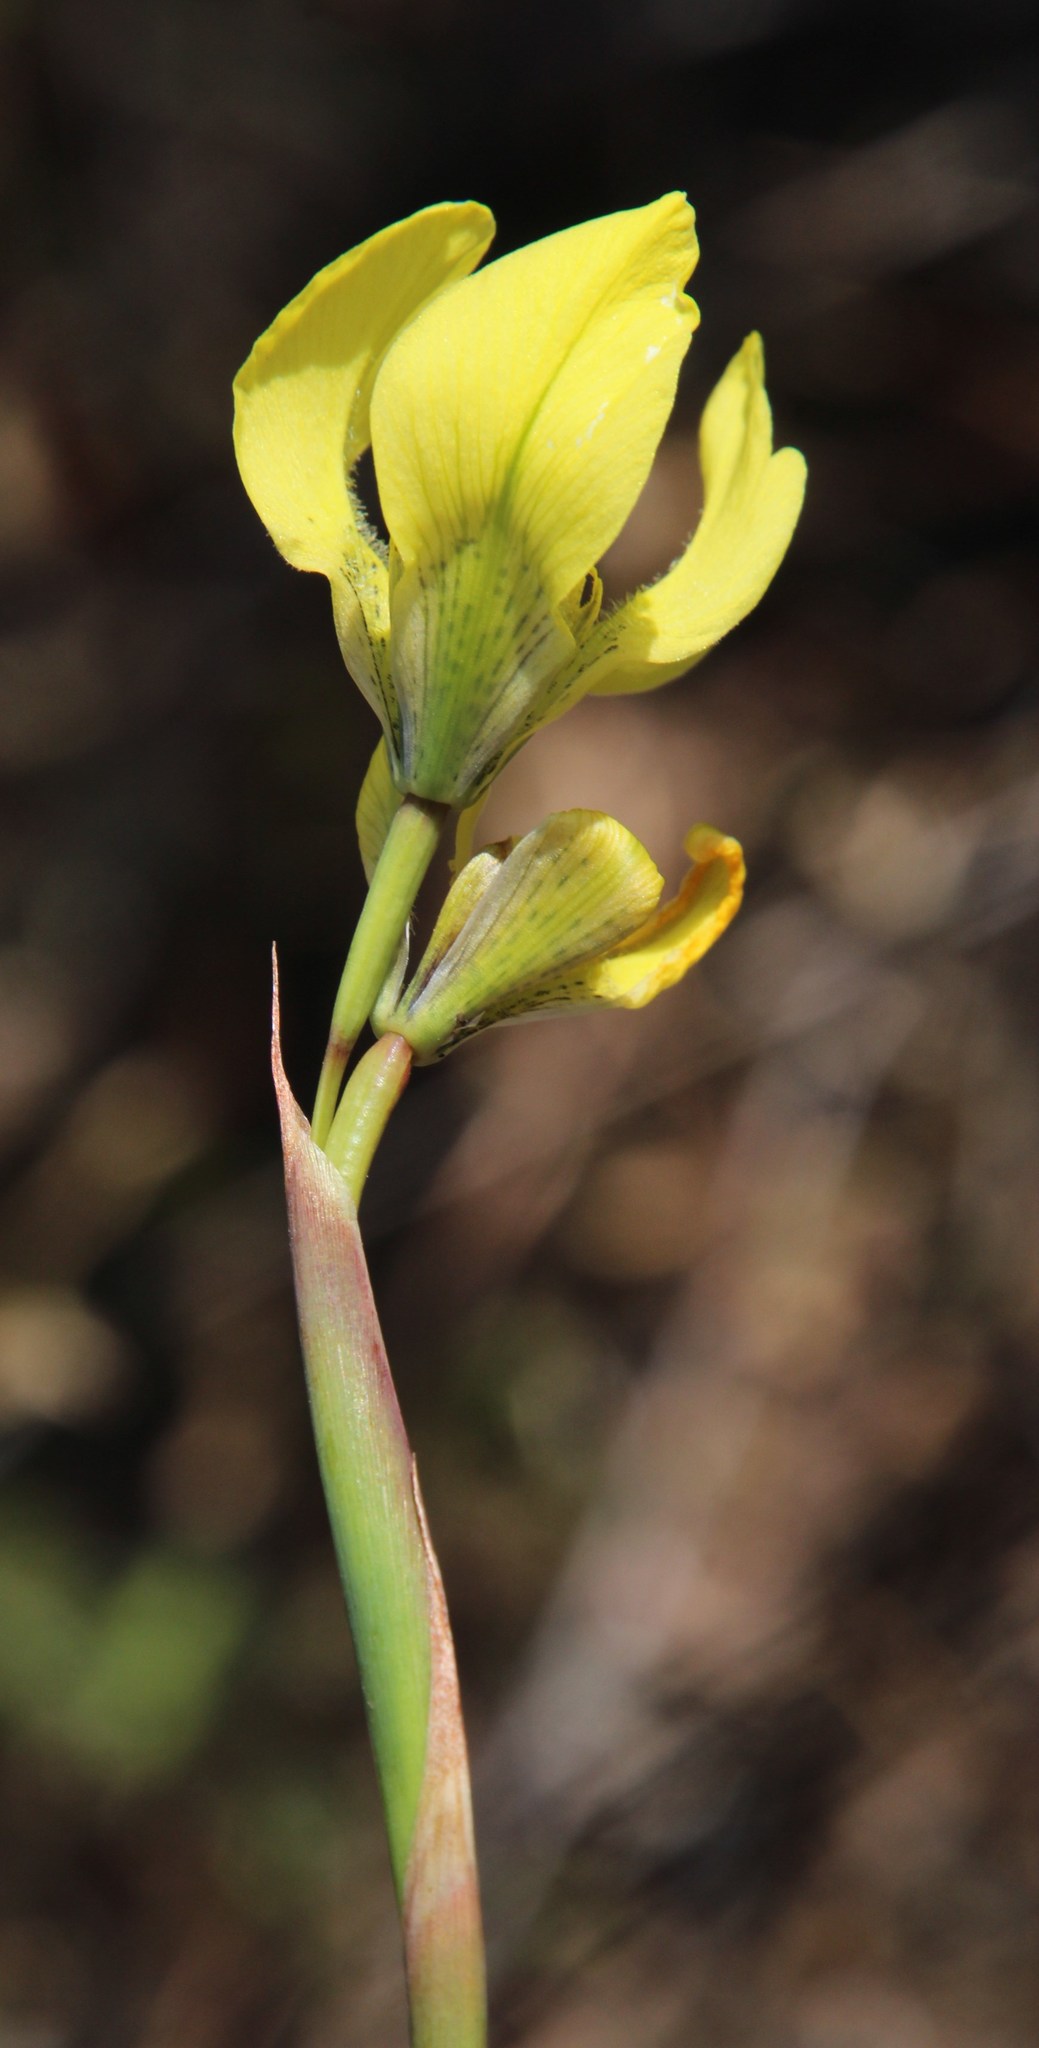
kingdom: Plantae
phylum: Tracheophyta
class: Liliopsida
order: Asparagales
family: Iridaceae
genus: Moraea
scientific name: Moraea bellendenii
